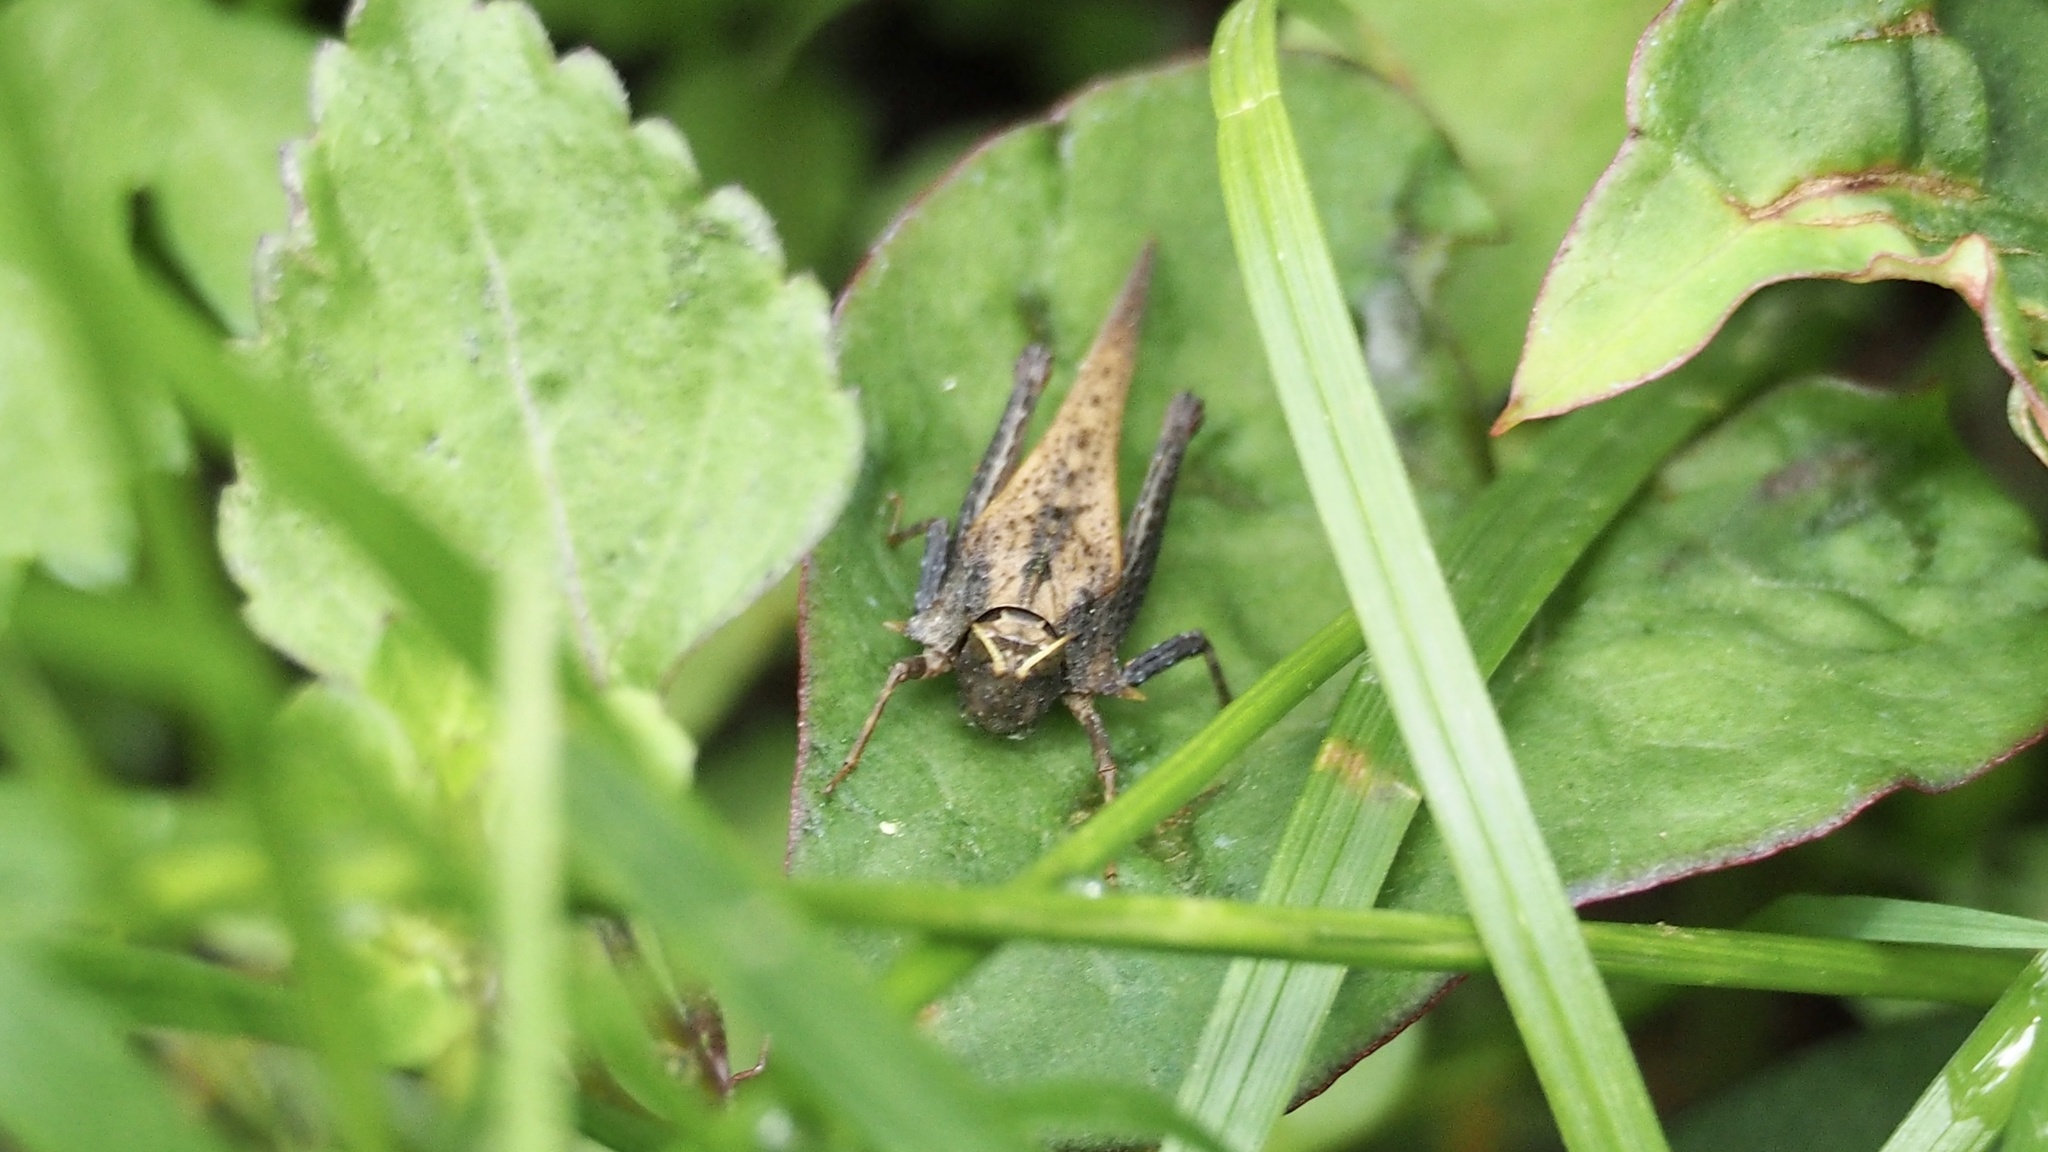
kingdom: Animalia
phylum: Arthropoda
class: Insecta
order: Orthoptera
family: Tetrigidae
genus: Criotettix
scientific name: Criotettix japonicus
